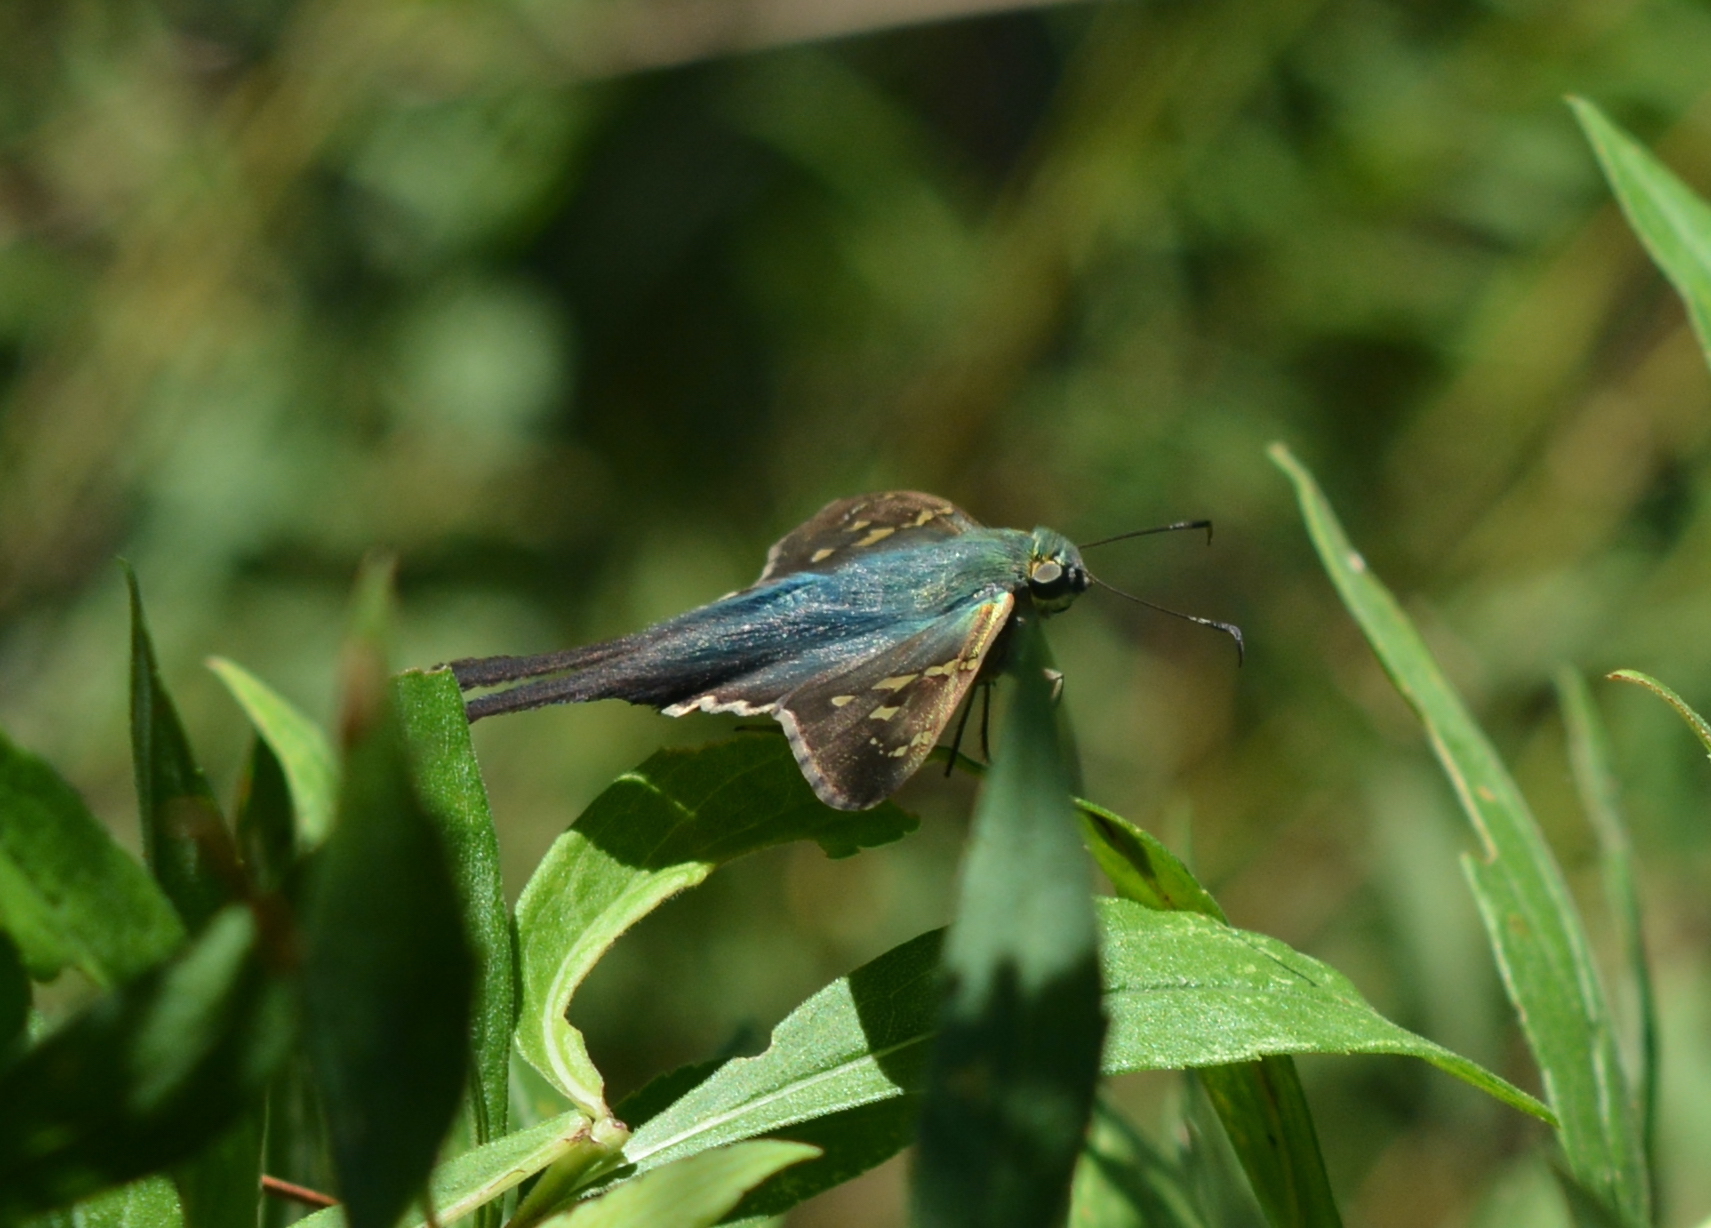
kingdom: Animalia
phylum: Arthropoda
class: Insecta
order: Lepidoptera
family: Hesperiidae
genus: Urbanus
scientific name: Urbanus proteus
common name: Long-tailed skipper
